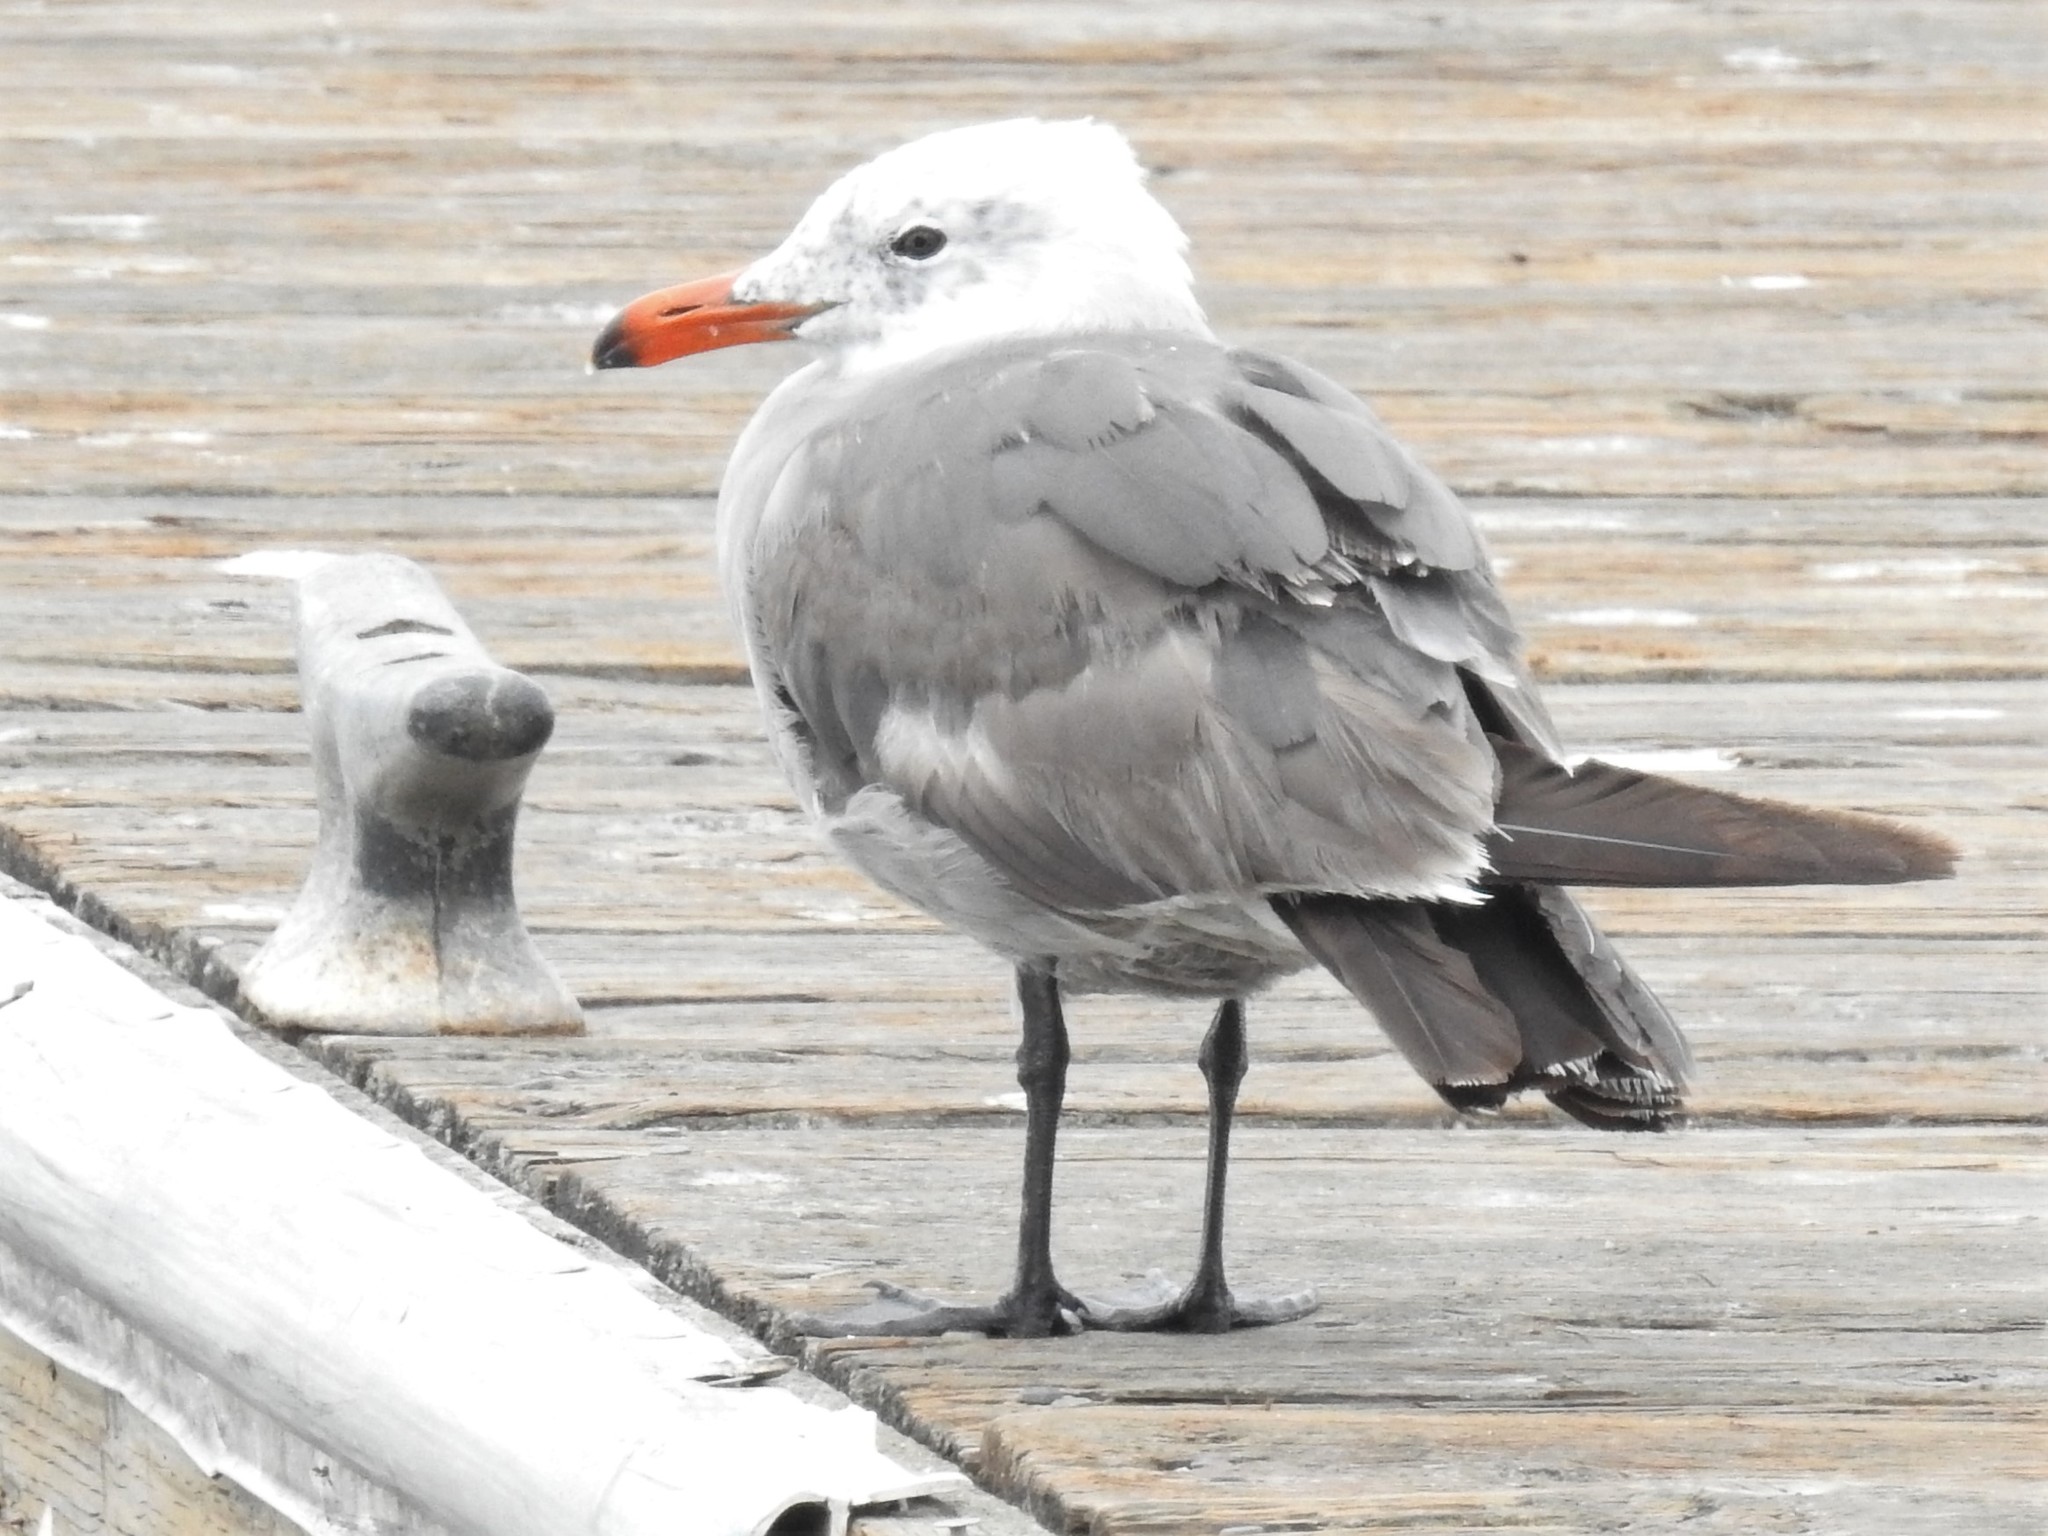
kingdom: Animalia
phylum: Chordata
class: Aves
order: Charadriiformes
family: Laridae
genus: Larus
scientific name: Larus heermanni
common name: Heermann's gull
